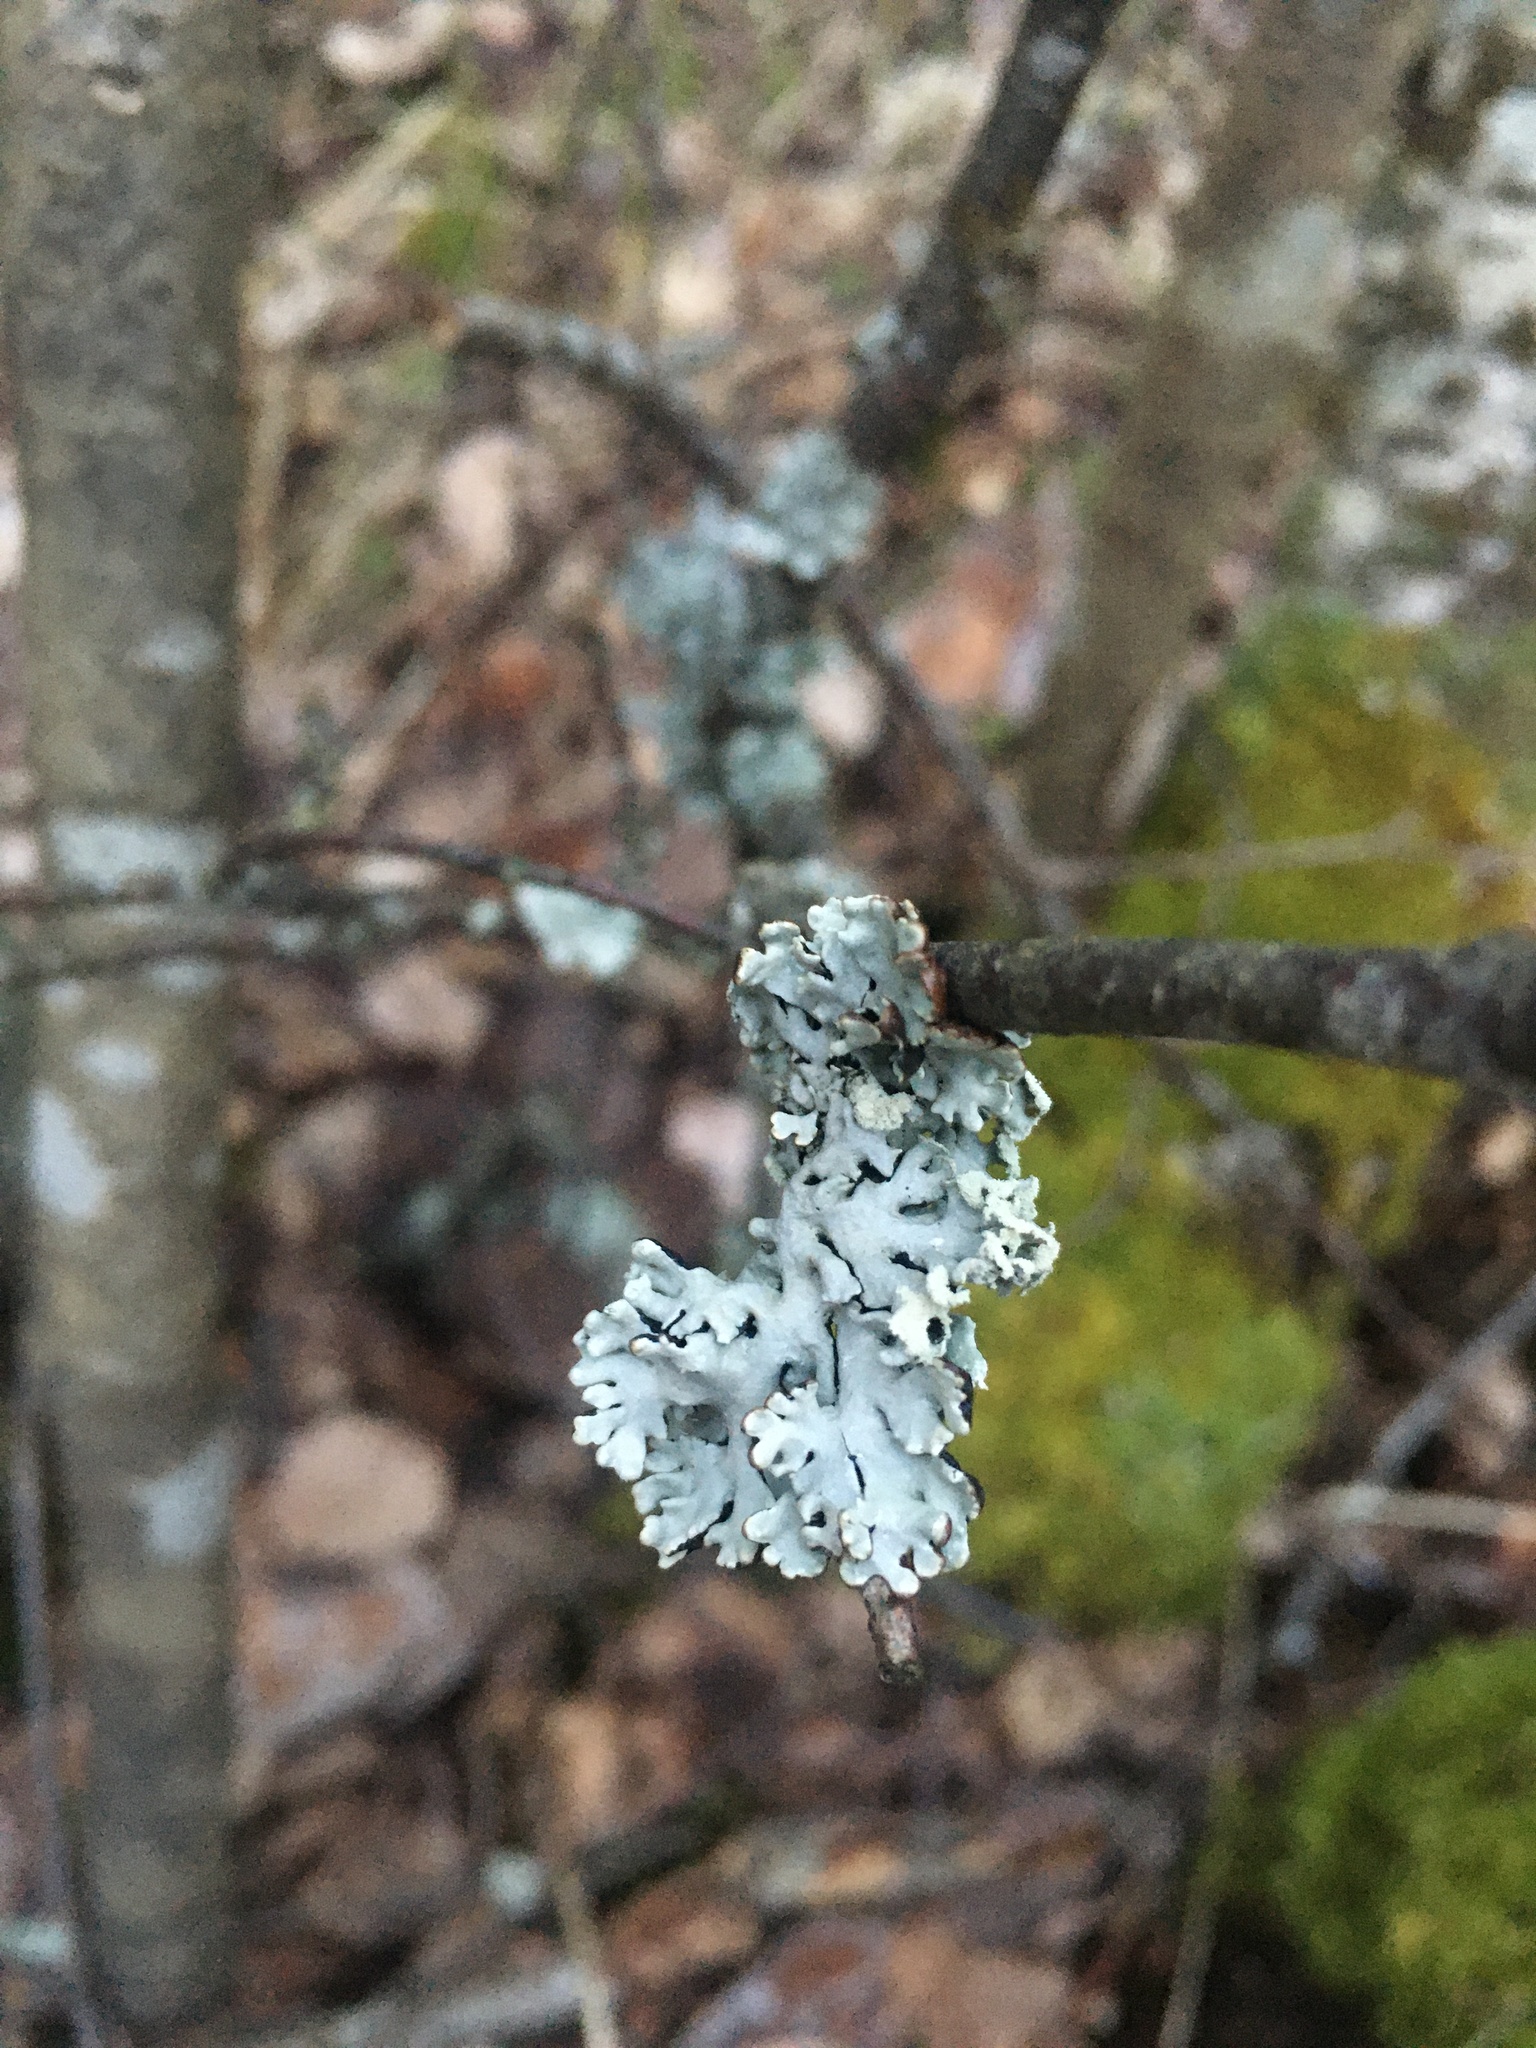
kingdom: Fungi
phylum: Ascomycota
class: Lecanoromycetes
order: Lecanorales
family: Parmeliaceae
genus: Hypogymnia
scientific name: Hypogymnia physodes
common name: Dark crottle
